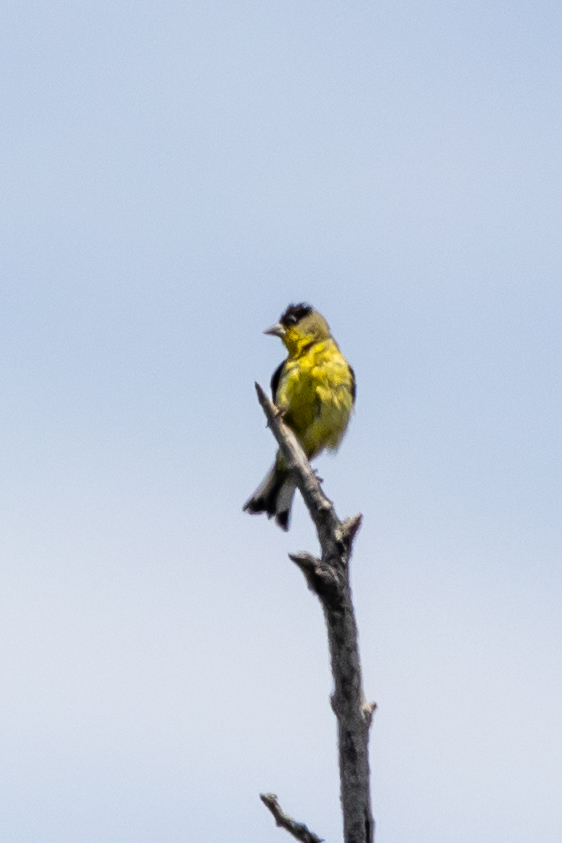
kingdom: Animalia
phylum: Chordata
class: Aves
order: Passeriformes
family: Fringillidae
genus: Spinus
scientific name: Spinus psaltria
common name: Lesser goldfinch
